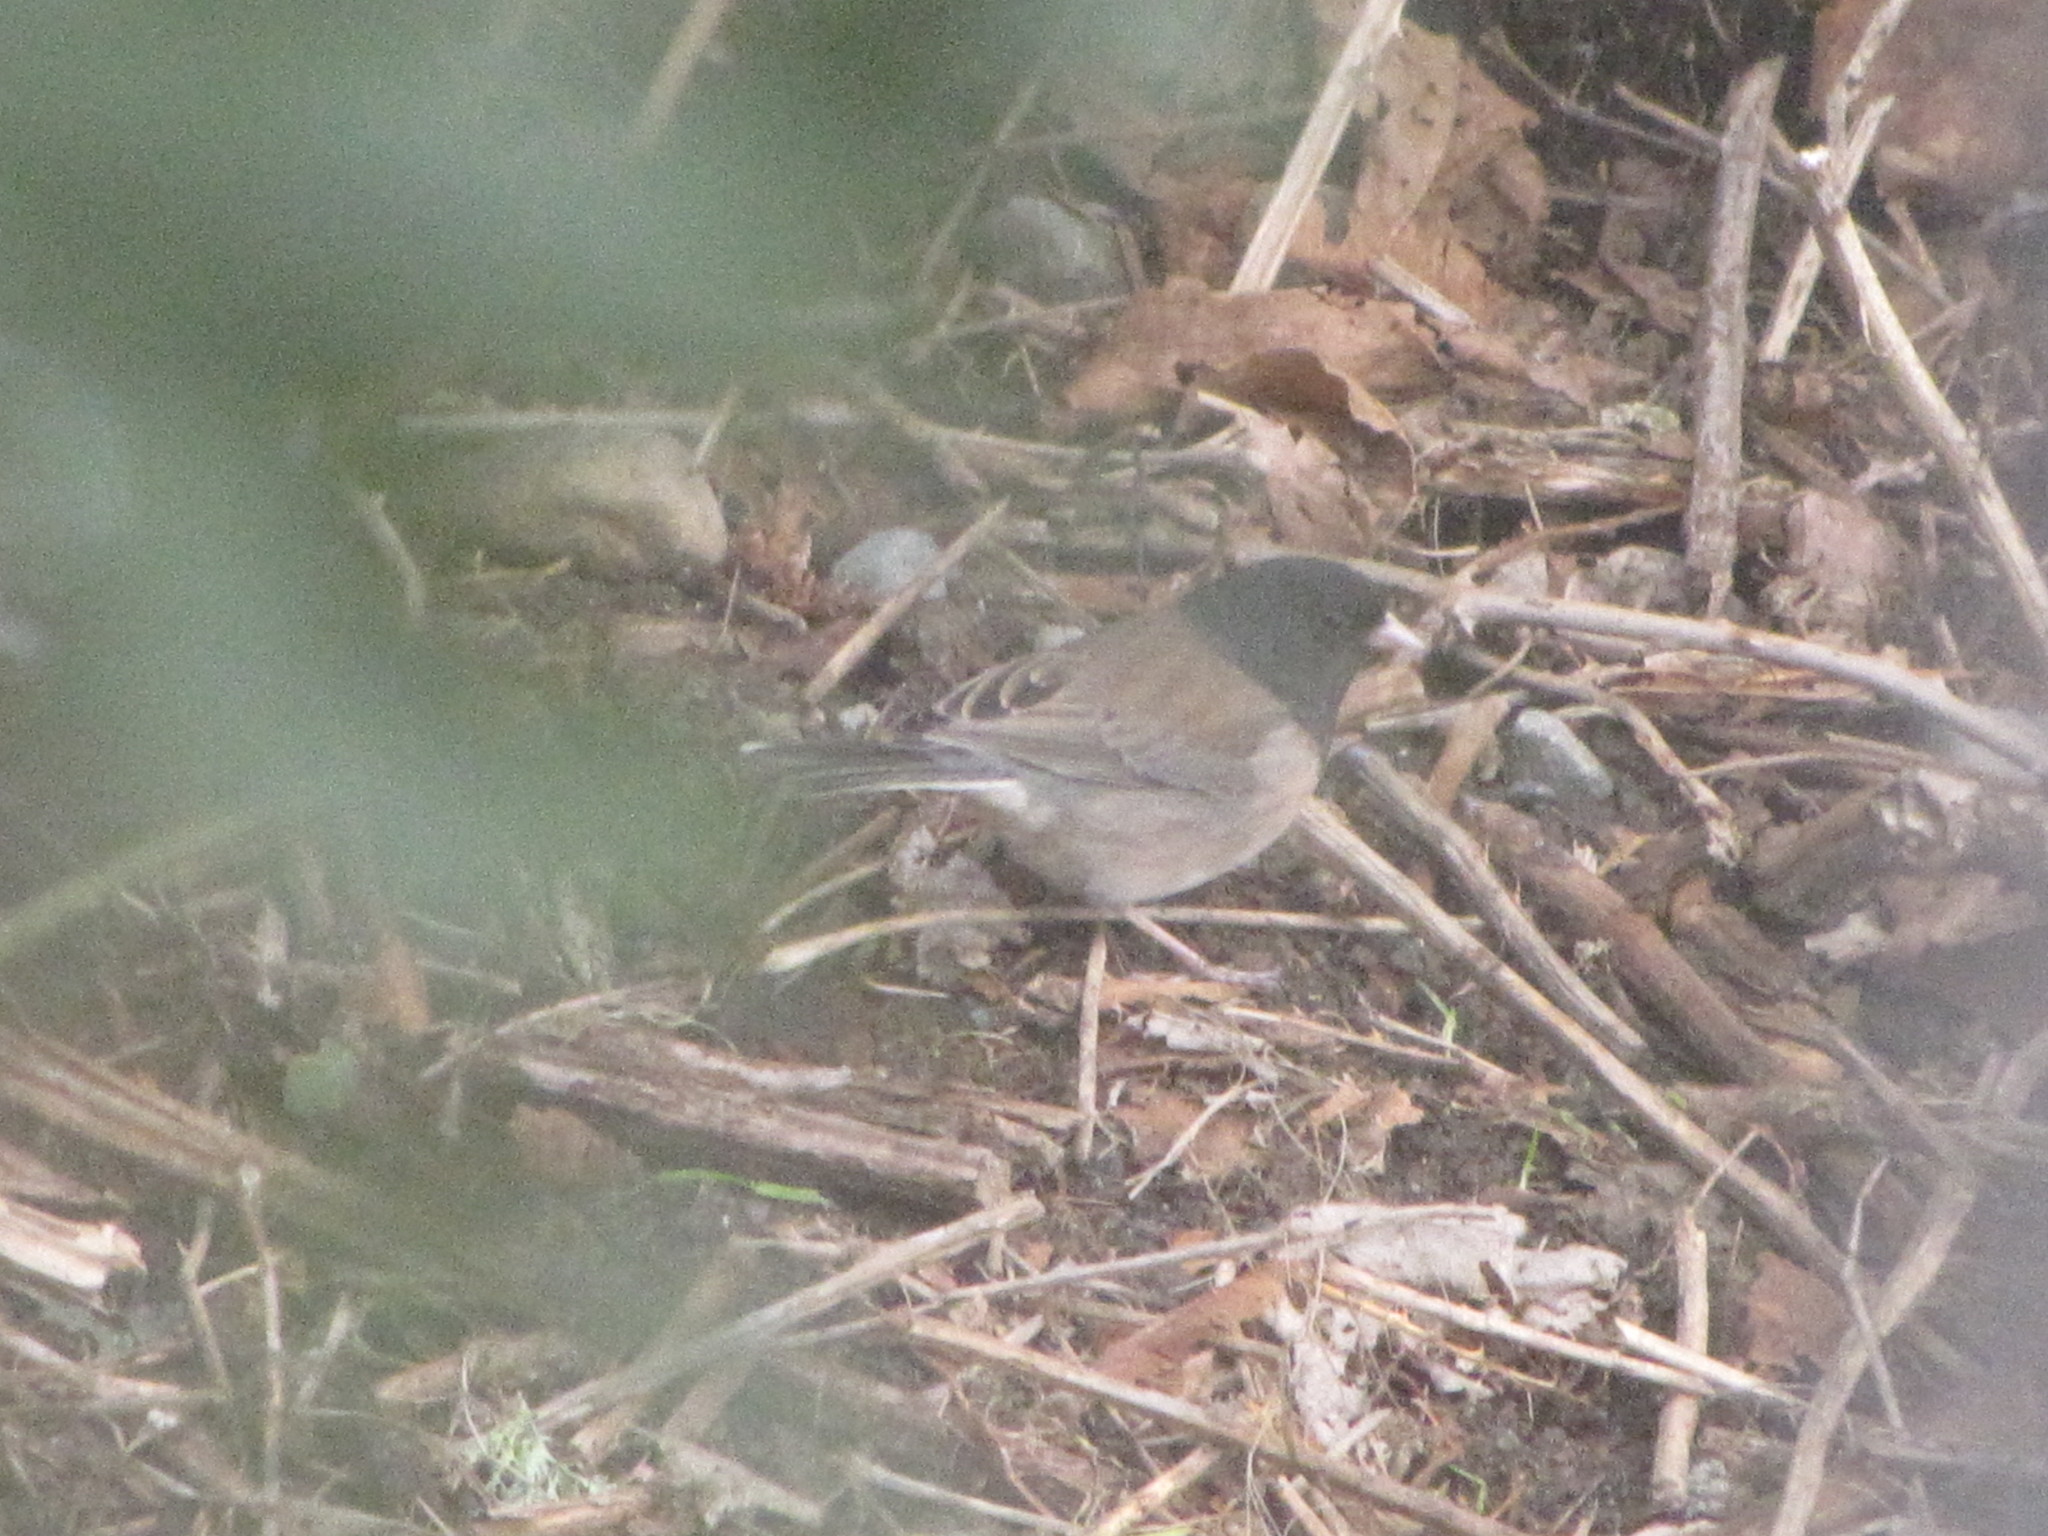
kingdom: Animalia
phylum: Chordata
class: Aves
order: Passeriformes
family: Passerellidae
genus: Junco
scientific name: Junco hyemalis
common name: Dark-eyed junco
